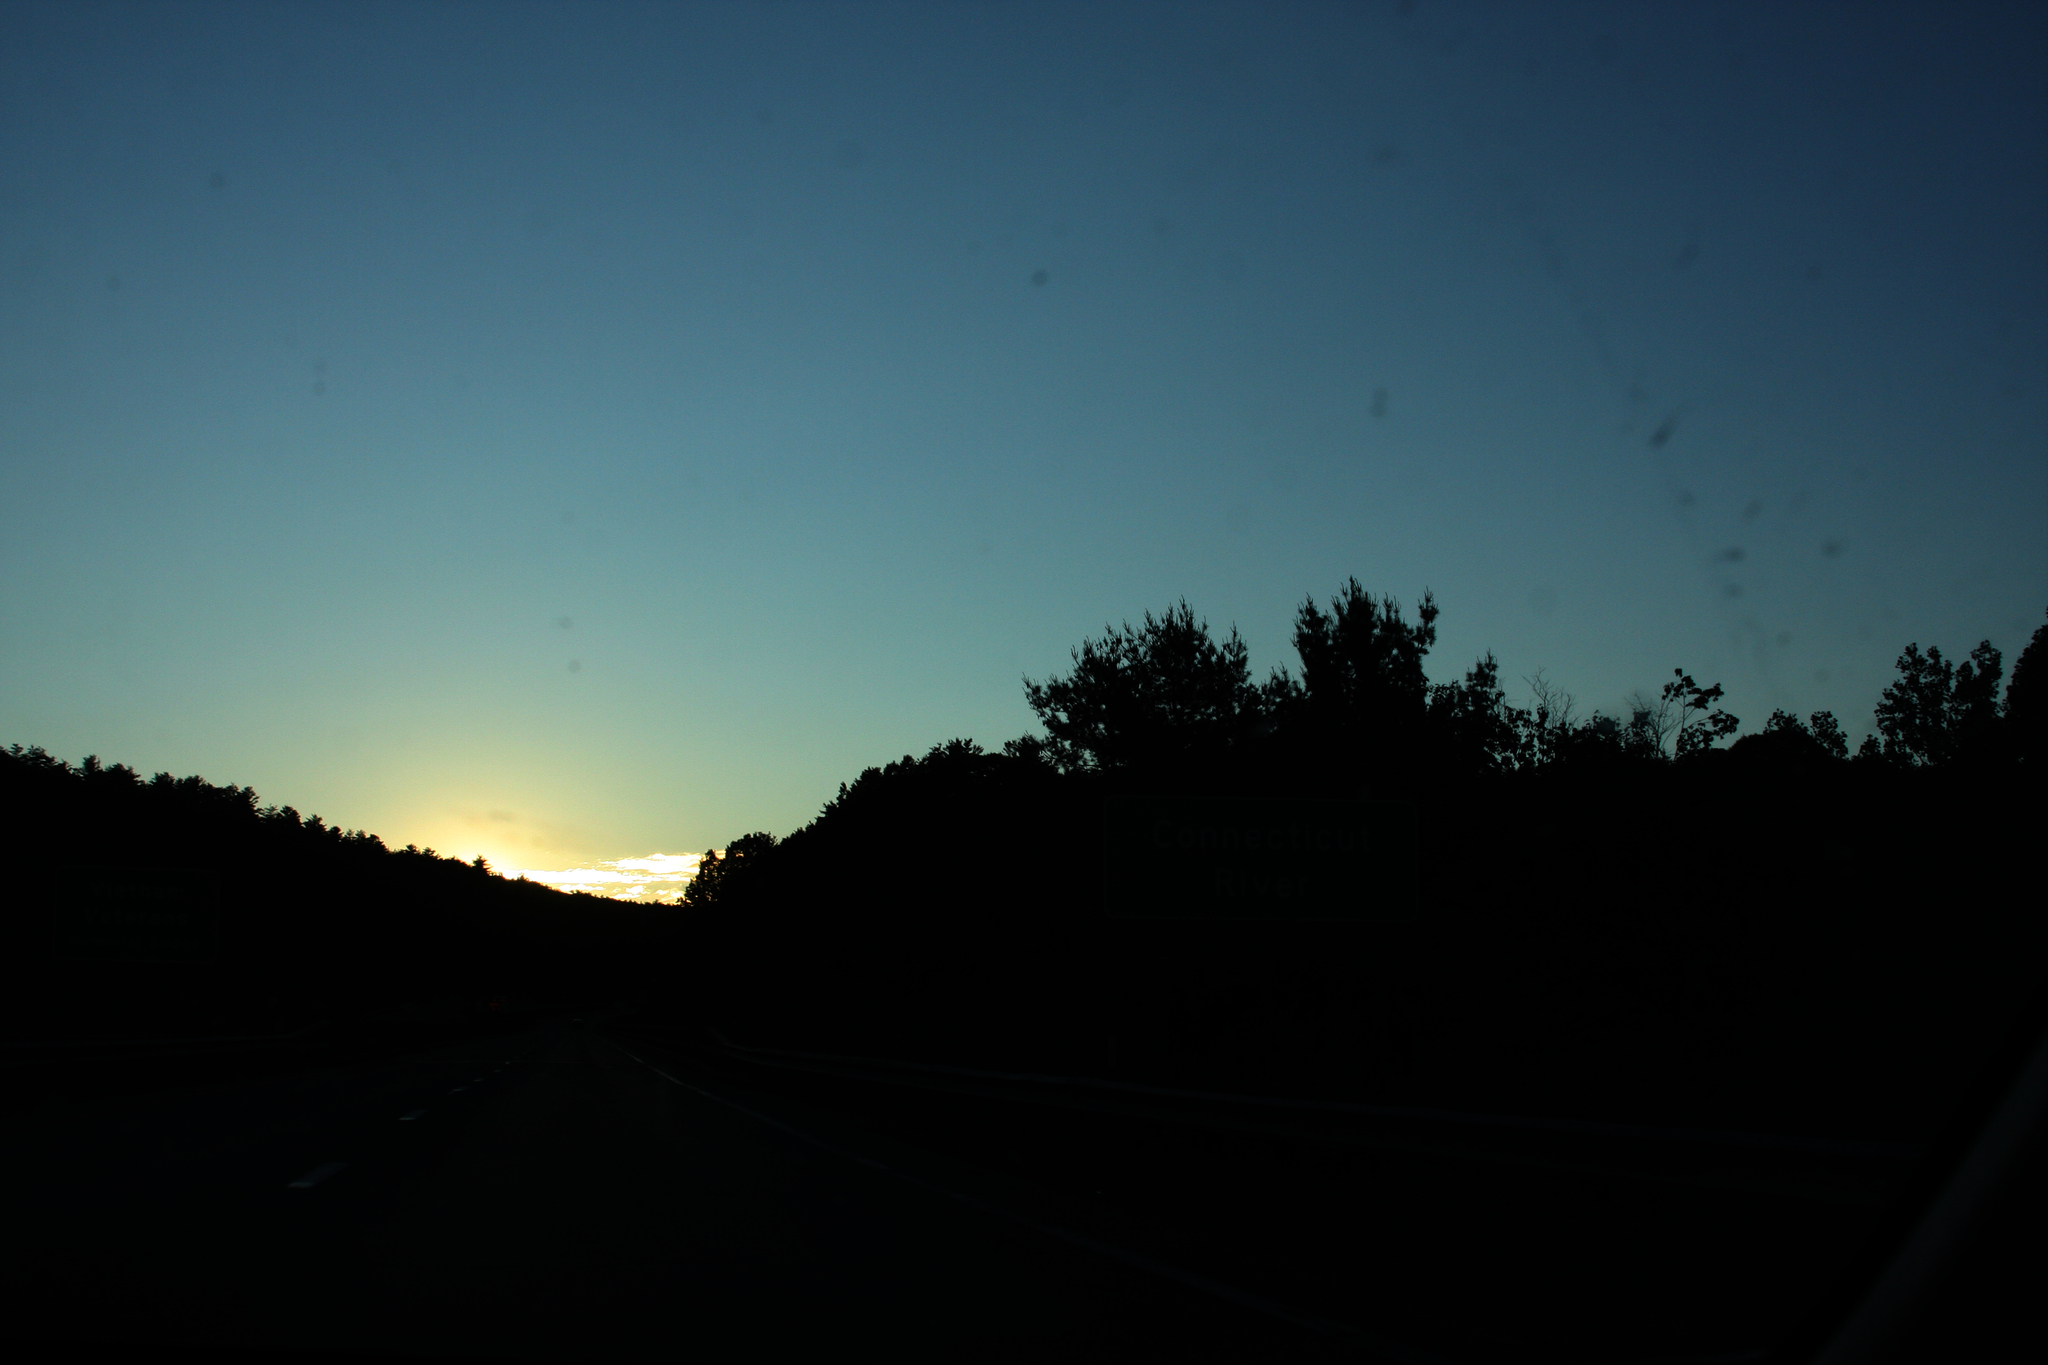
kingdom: Plantae
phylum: Tracheophyta
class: Pinopsida
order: Pinales
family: Pinaceae
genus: Pinus
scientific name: Pinus strobus
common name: Weymouth pine
